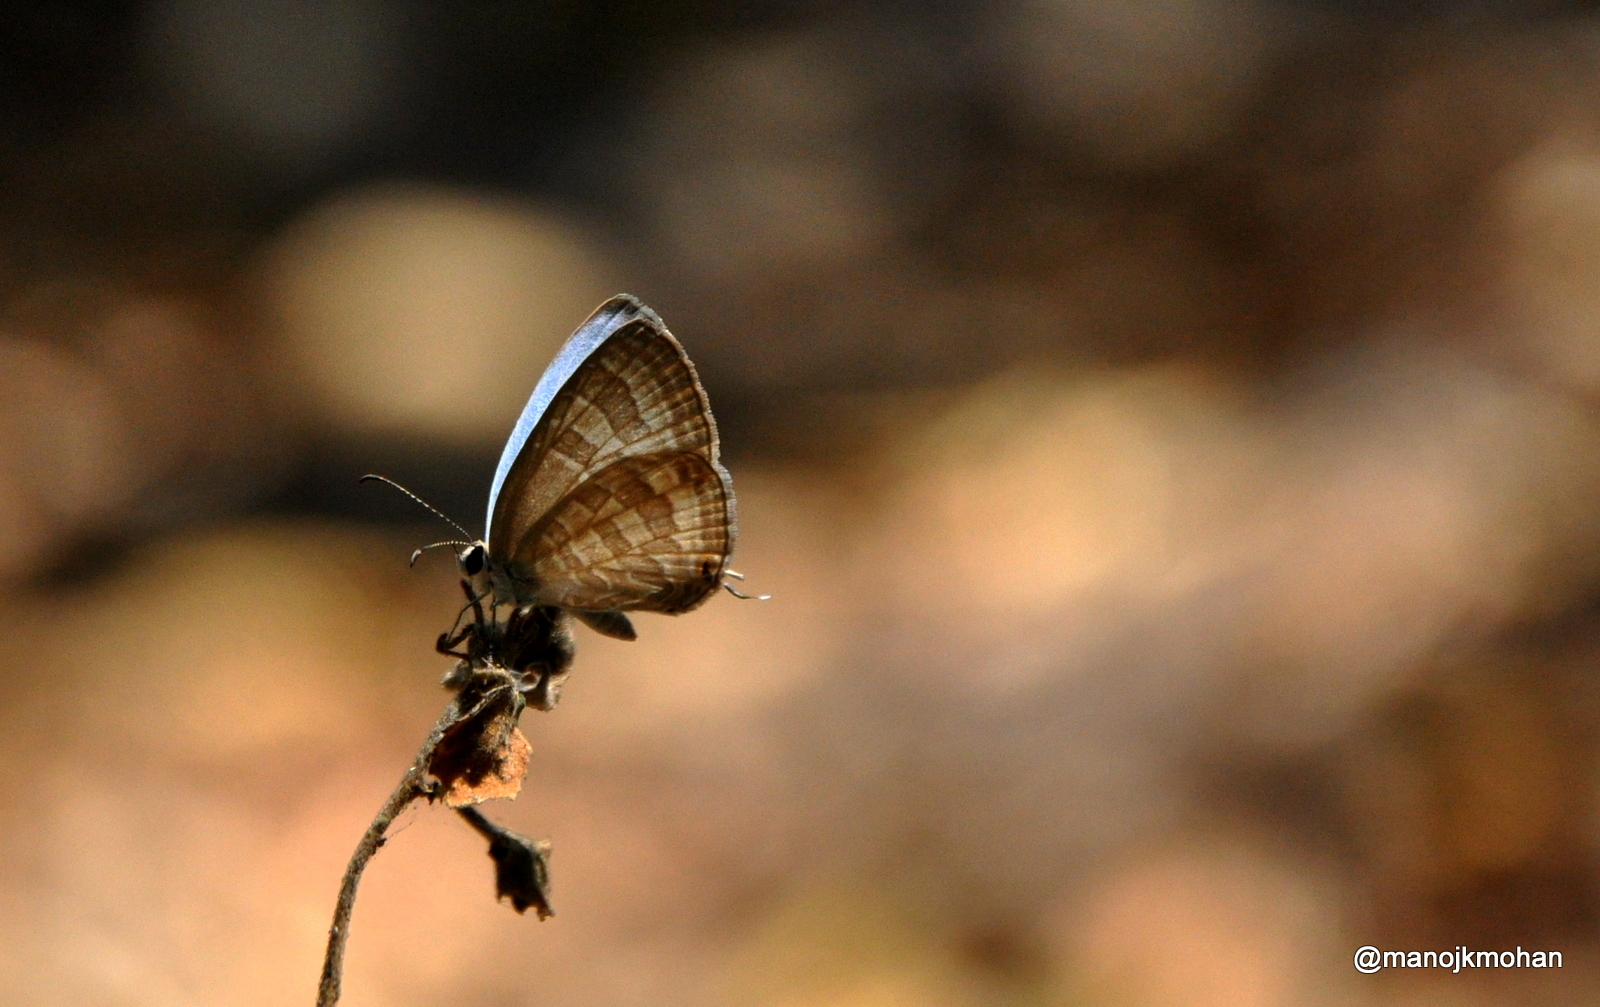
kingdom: Animalia
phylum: Arthropoda
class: Insecta
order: Lepidoptera
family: Lycaenidae
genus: Jamides
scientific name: Jamides celeno
